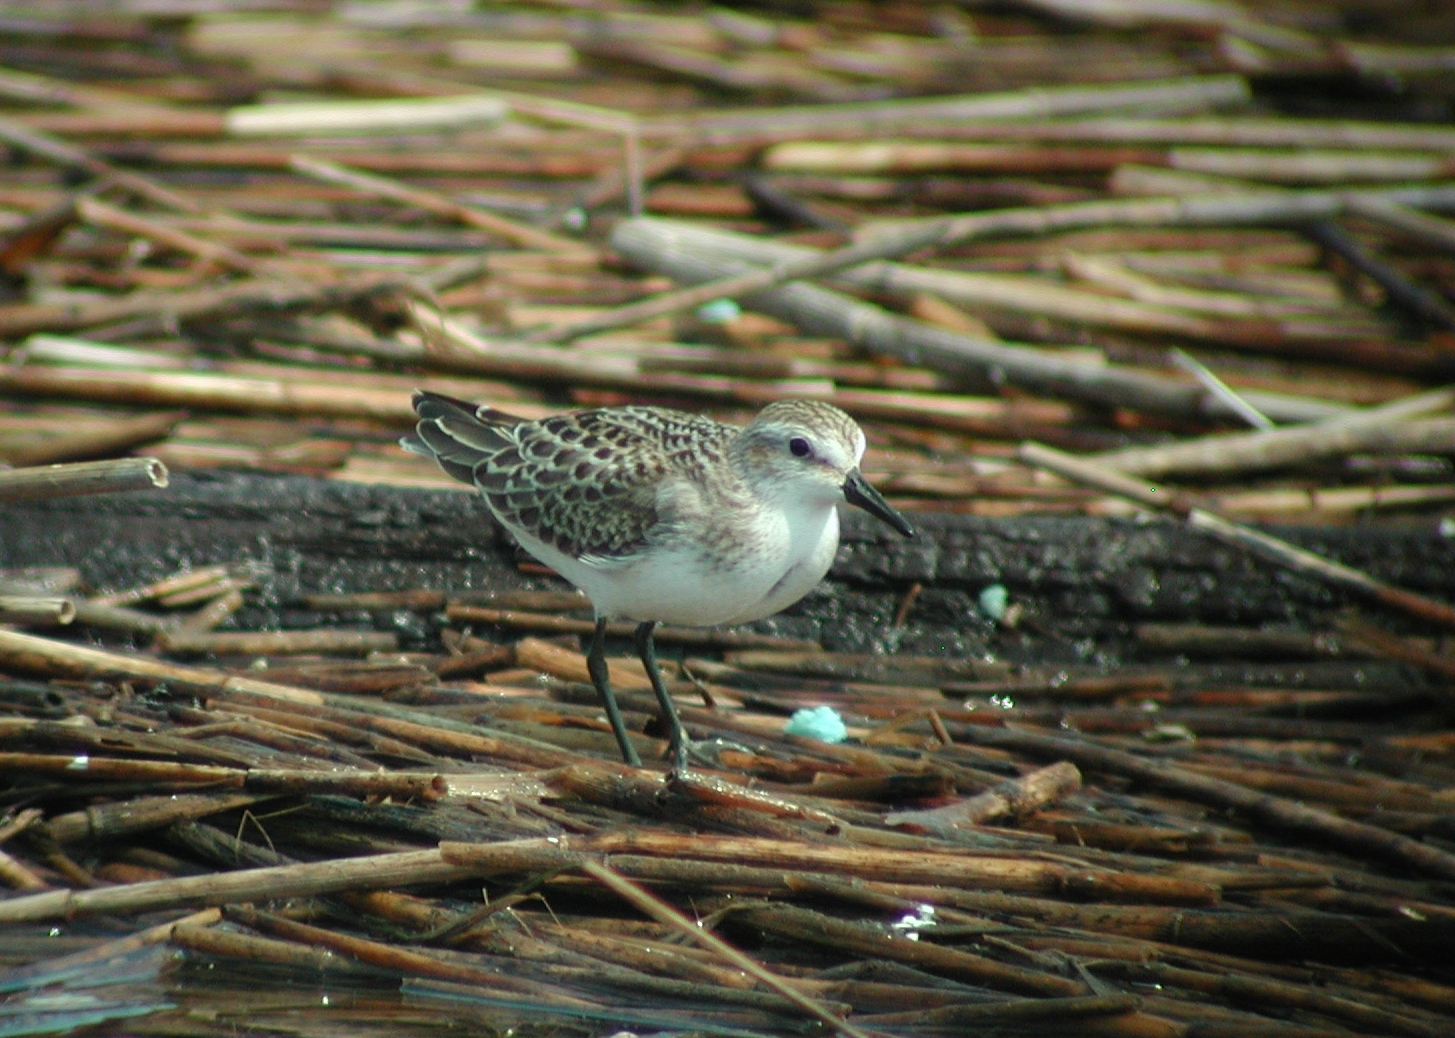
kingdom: Animalia
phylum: Chordata
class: Aves
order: Charadriiformes
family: Scolopacidae
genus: Calidris
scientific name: Calidris pusilla
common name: Semipalmated sandpiper
